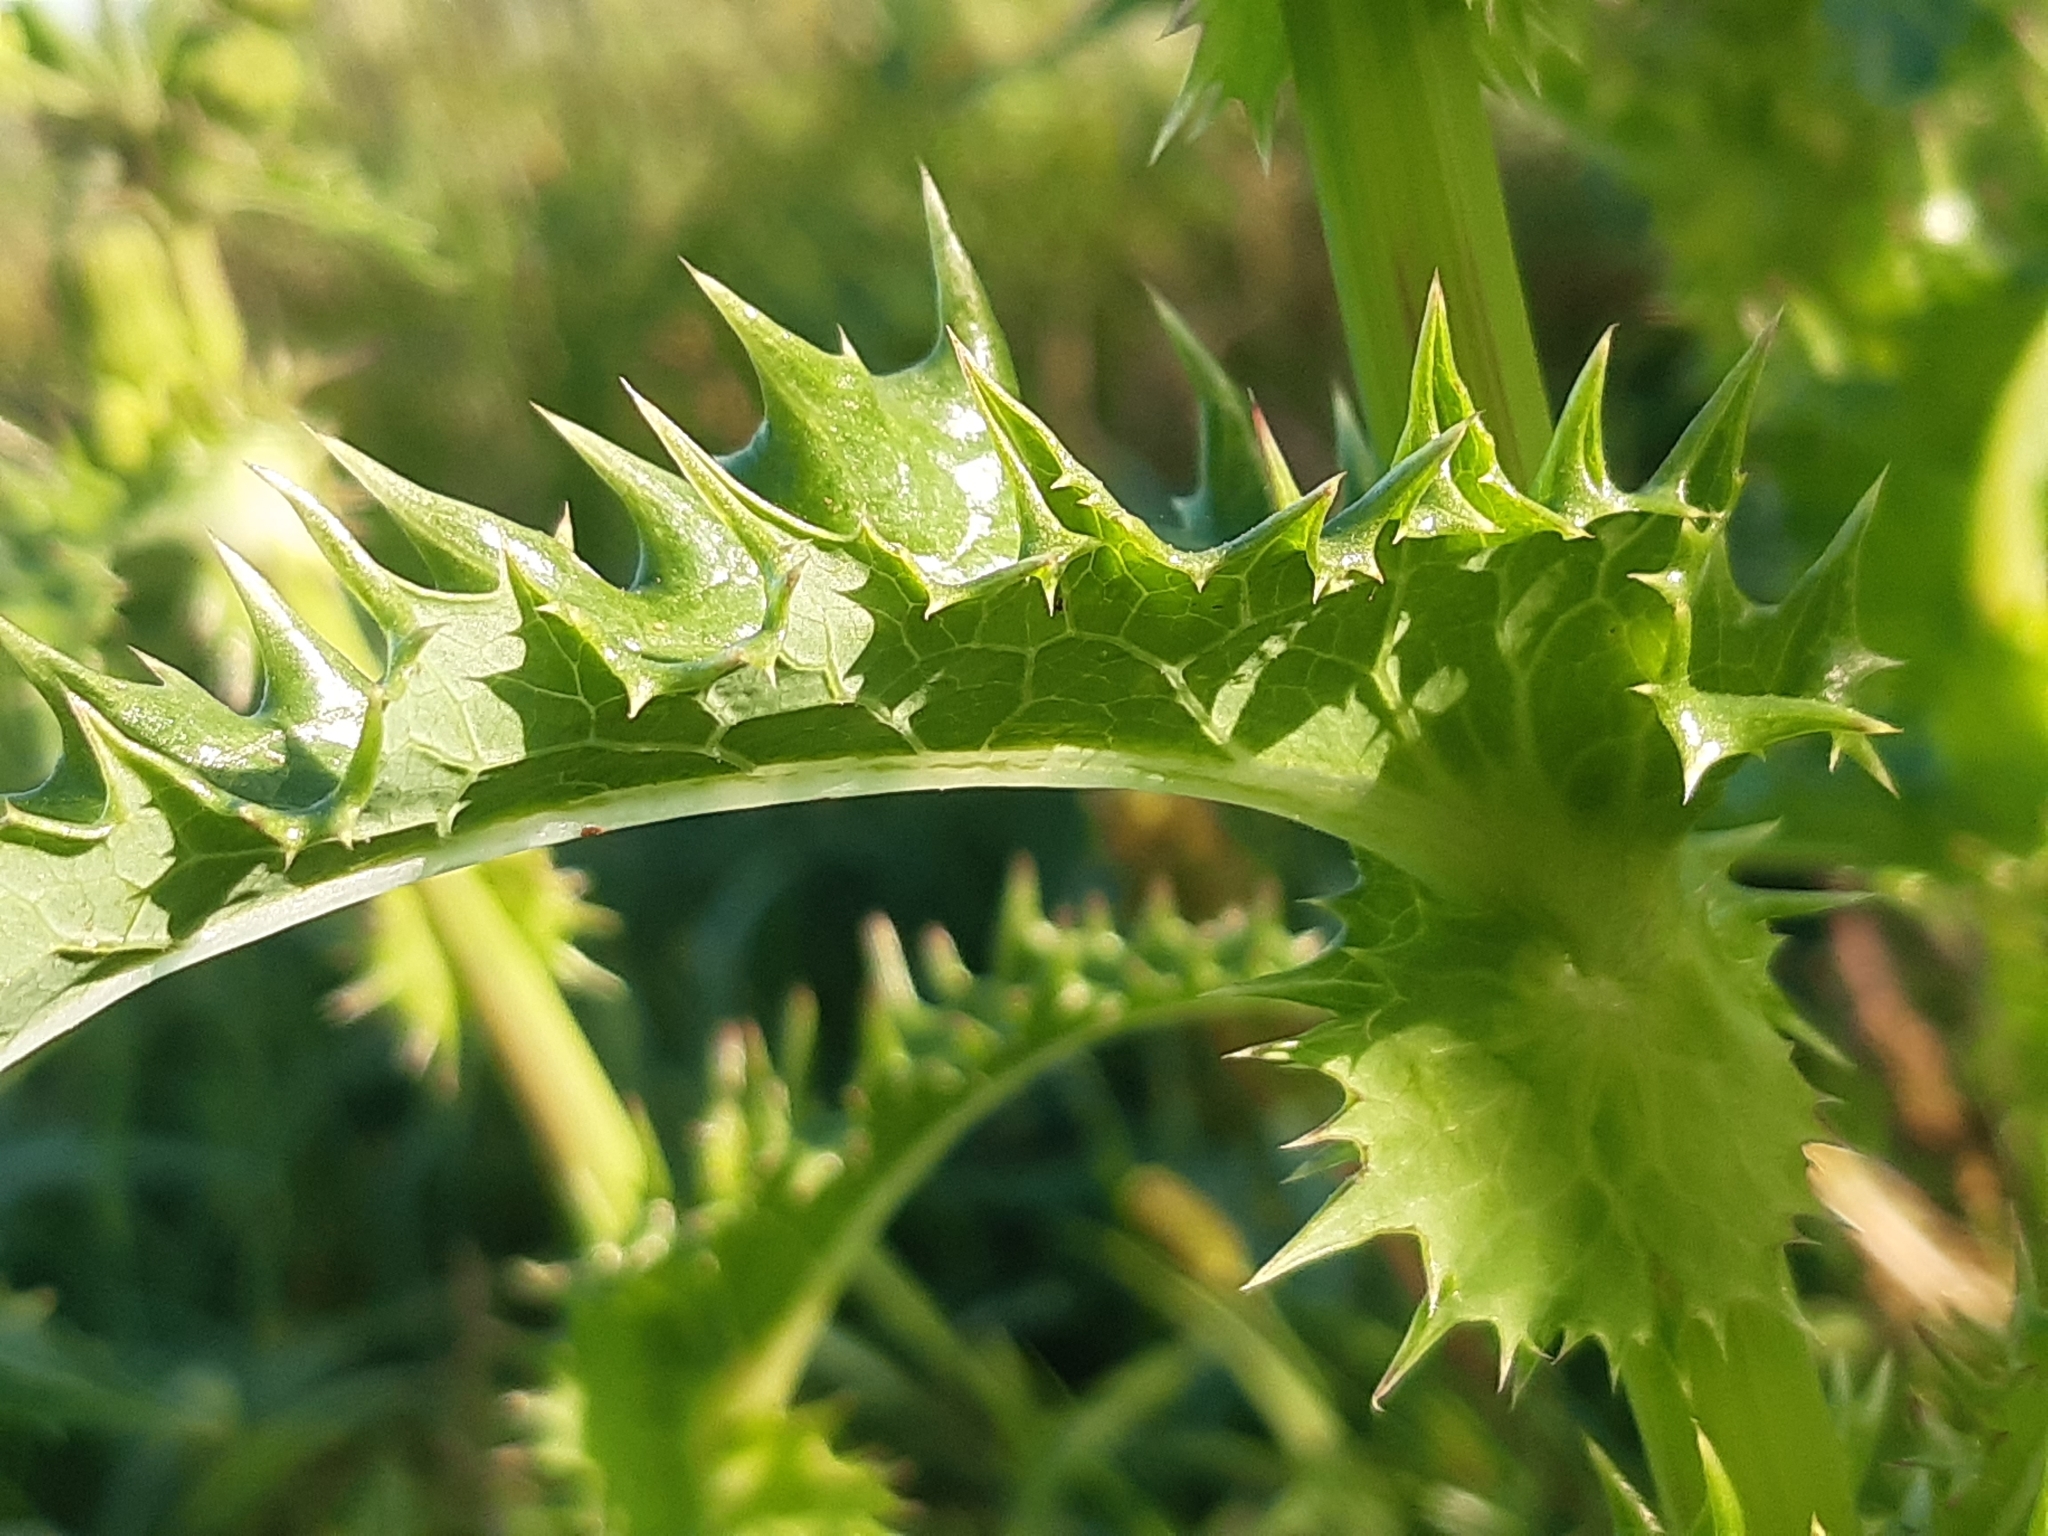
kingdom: Plantae
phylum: Tracheophyta
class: Magnoliopsida
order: Asterales
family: Asteraceae
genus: Sonchus
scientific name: Sonchus asper
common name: Prickly sow-thistle
